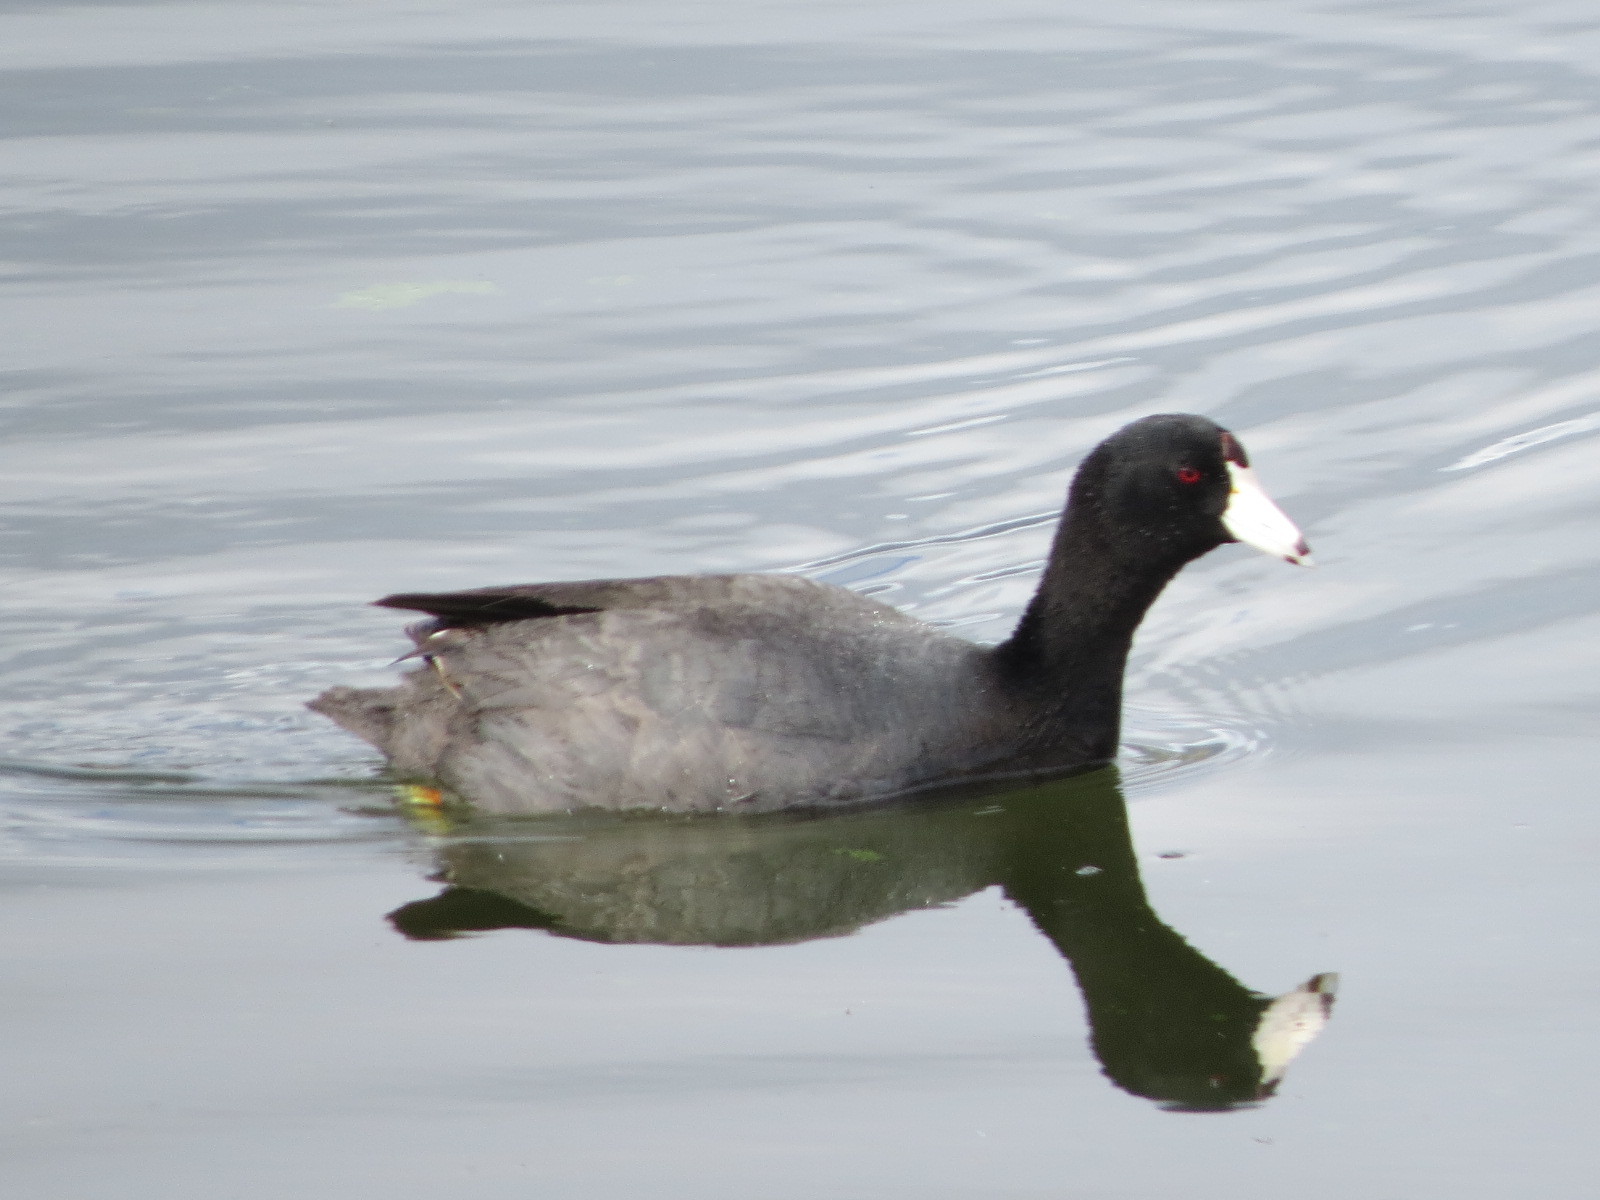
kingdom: Animalia
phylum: Chordata
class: Aves
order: Gruiformes
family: Rallidae
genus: Fulica
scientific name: Fulica americana
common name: American coot
